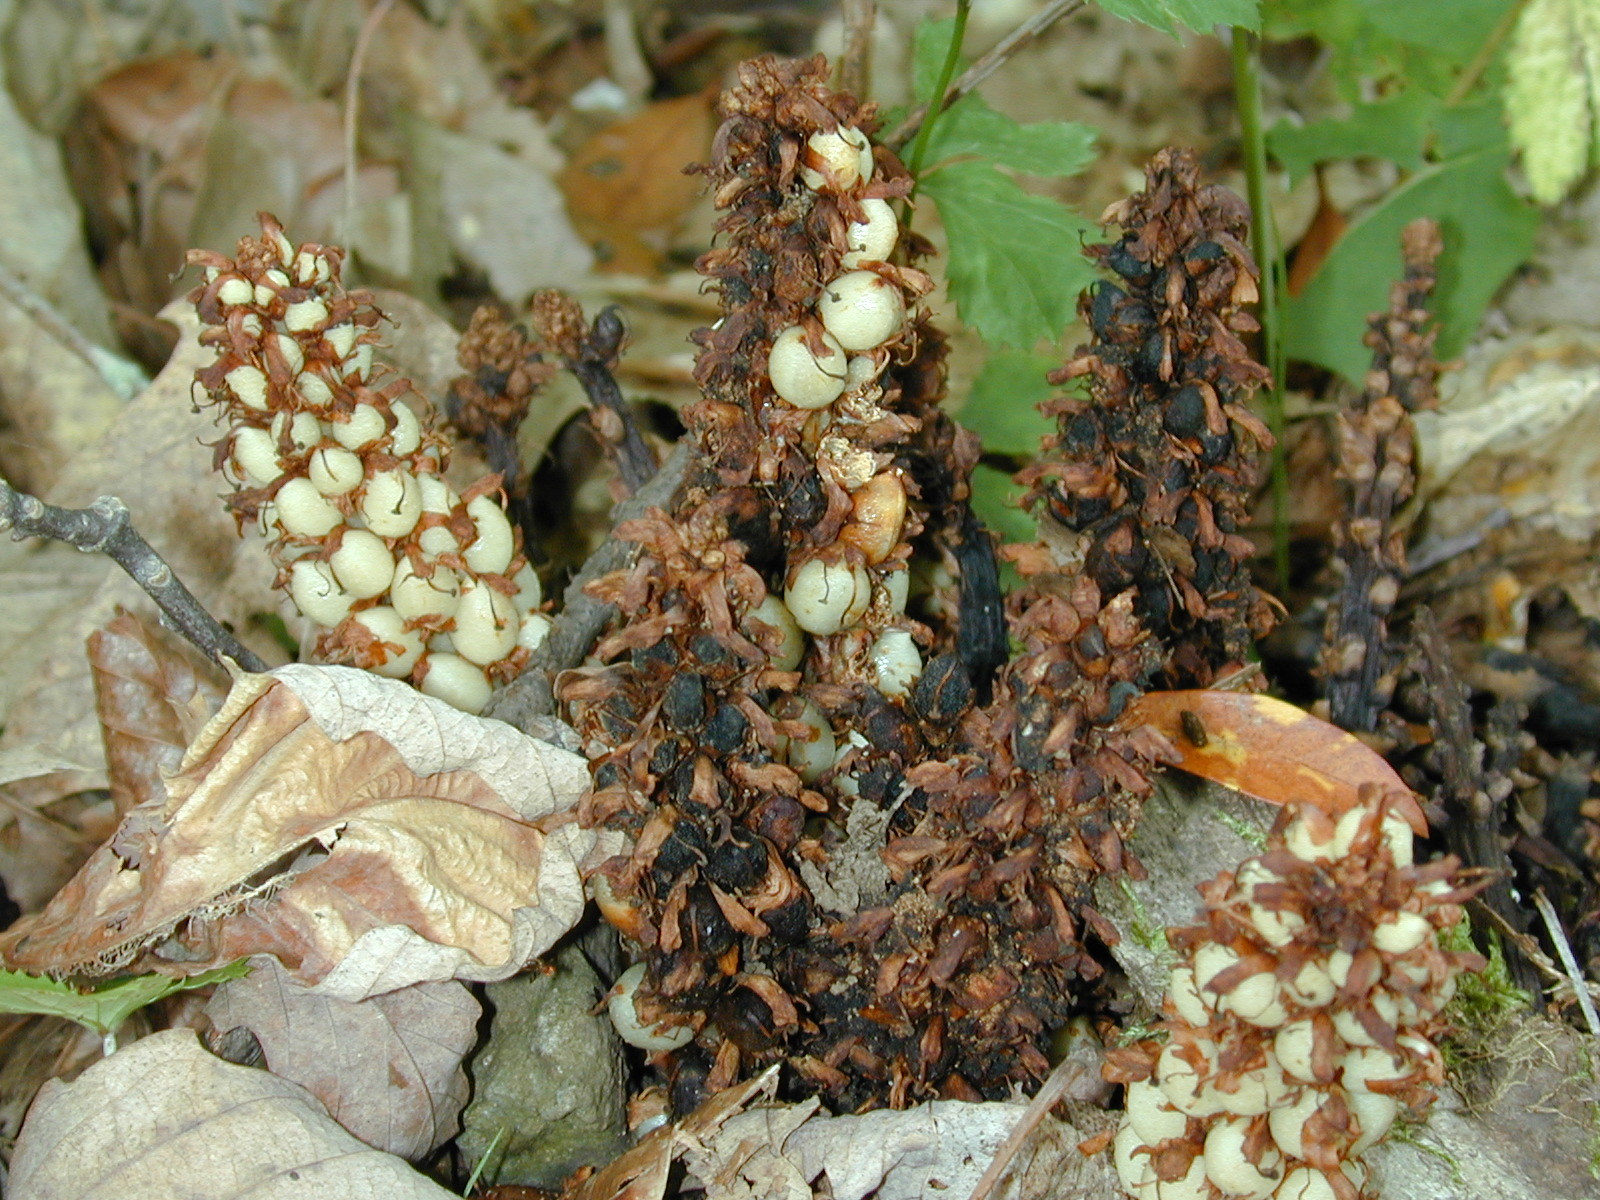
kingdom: Plantae
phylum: Tracheophyta
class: Magnoliopsida
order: Lamiales
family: Orobanchaceae
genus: Conopholis
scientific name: Conopholis americana
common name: American cancer-root
